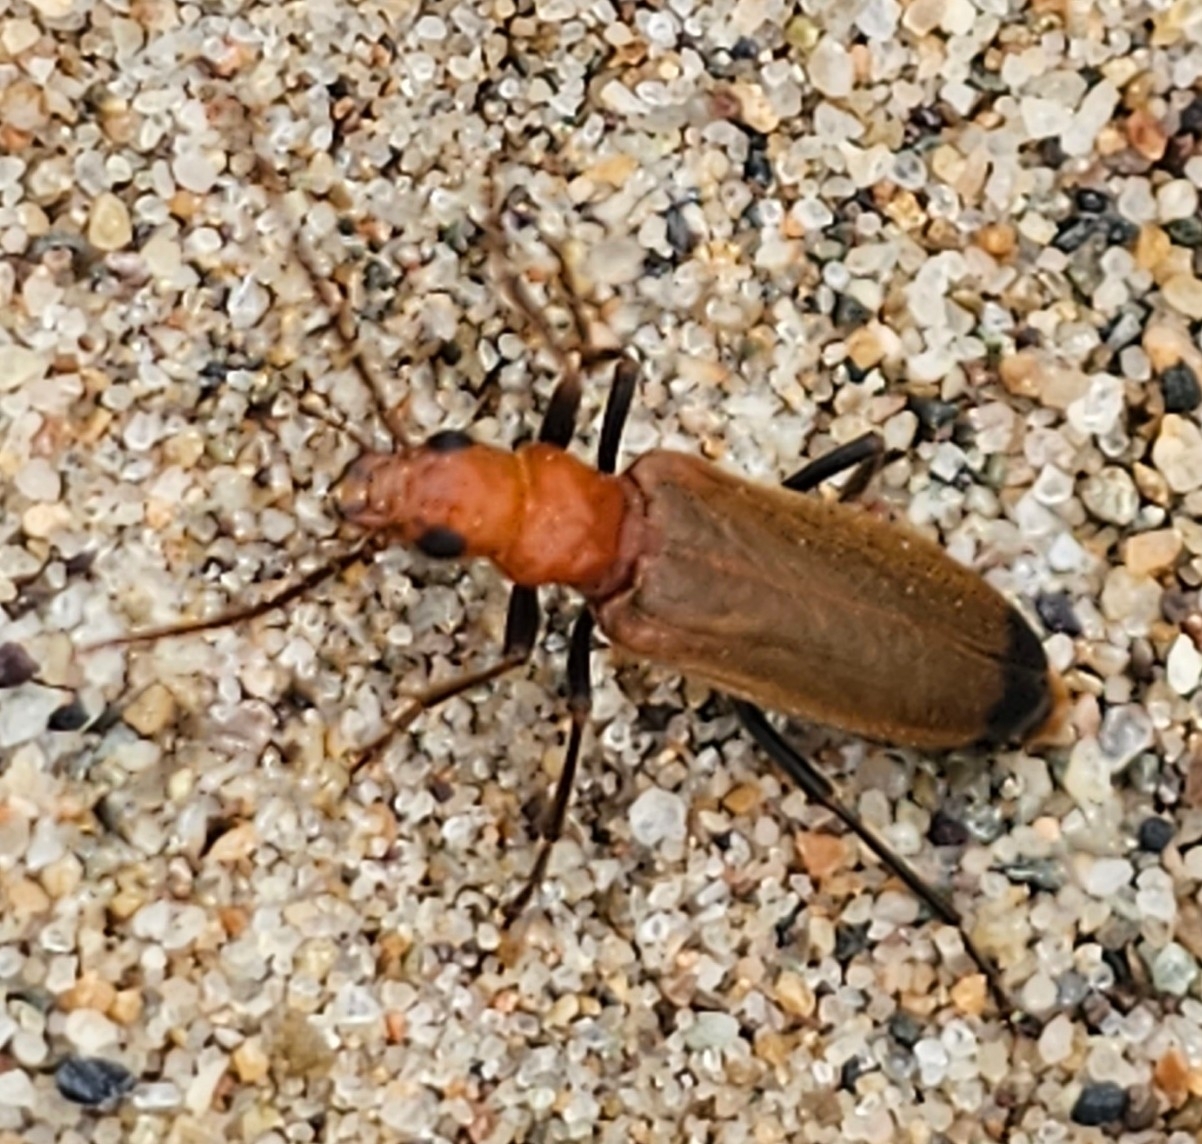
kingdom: Animalia
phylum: Arthropoda
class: Insecta
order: Coleoptera
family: Oedemeridae
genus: Nacerdes
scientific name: Nacerdes melanura
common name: Wharf borer
